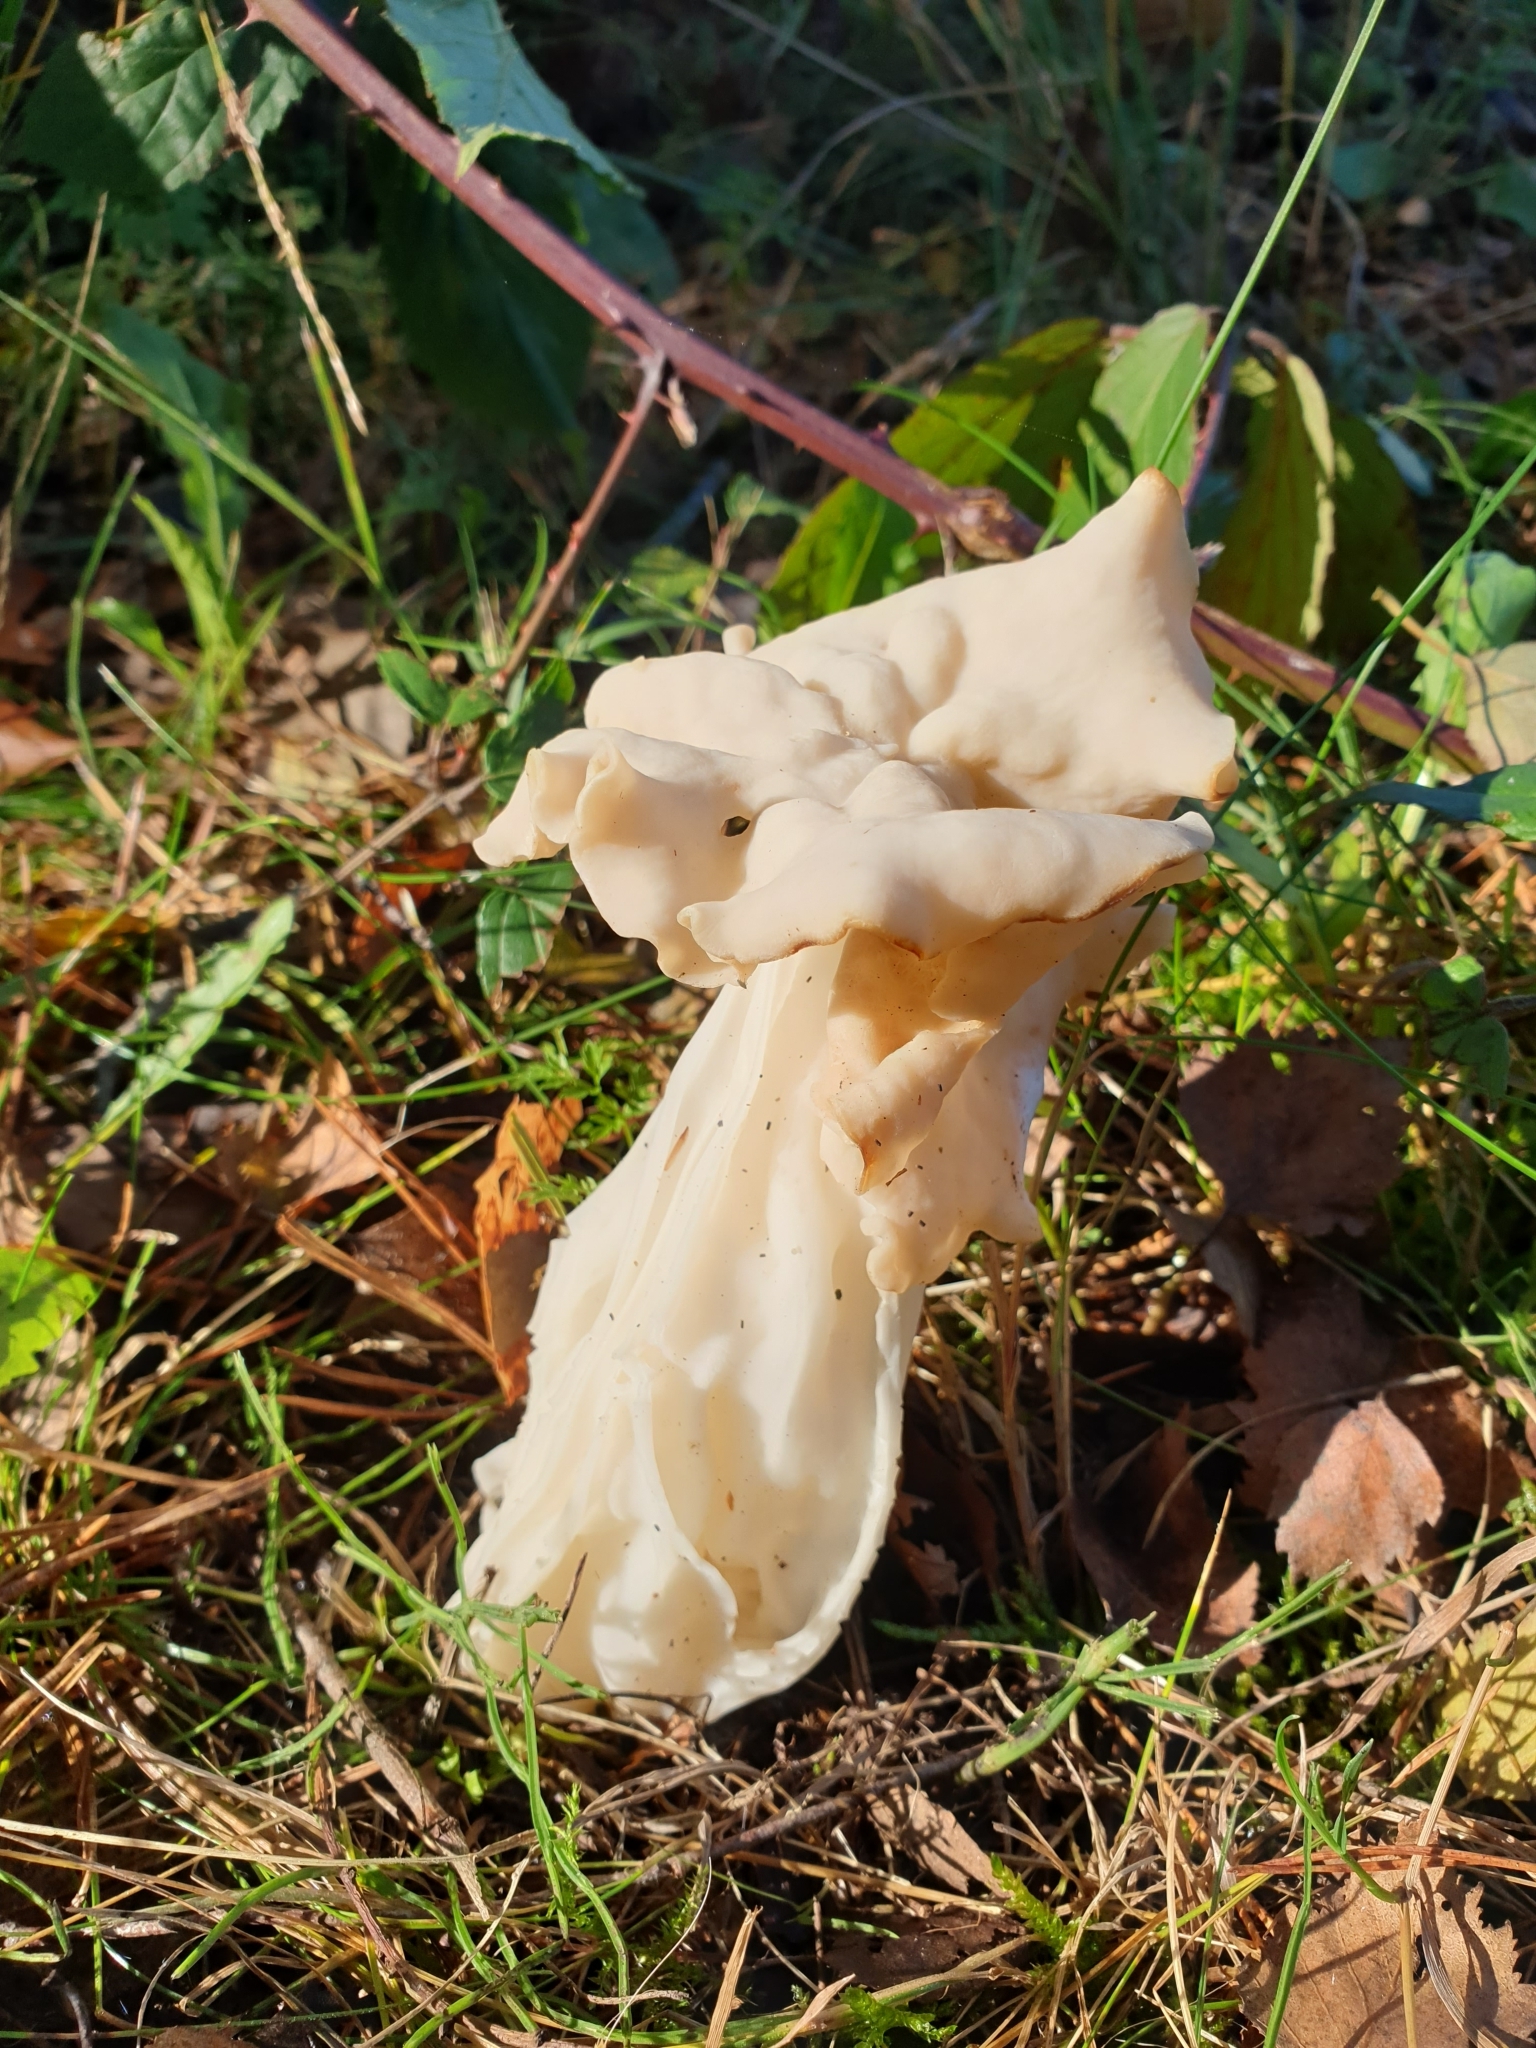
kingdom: Fungi
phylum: Ascomycota
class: Pezizomycetes
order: Pezizales
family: Helvellaceae
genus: Helvella
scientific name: Helvella crispa
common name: White saddle
